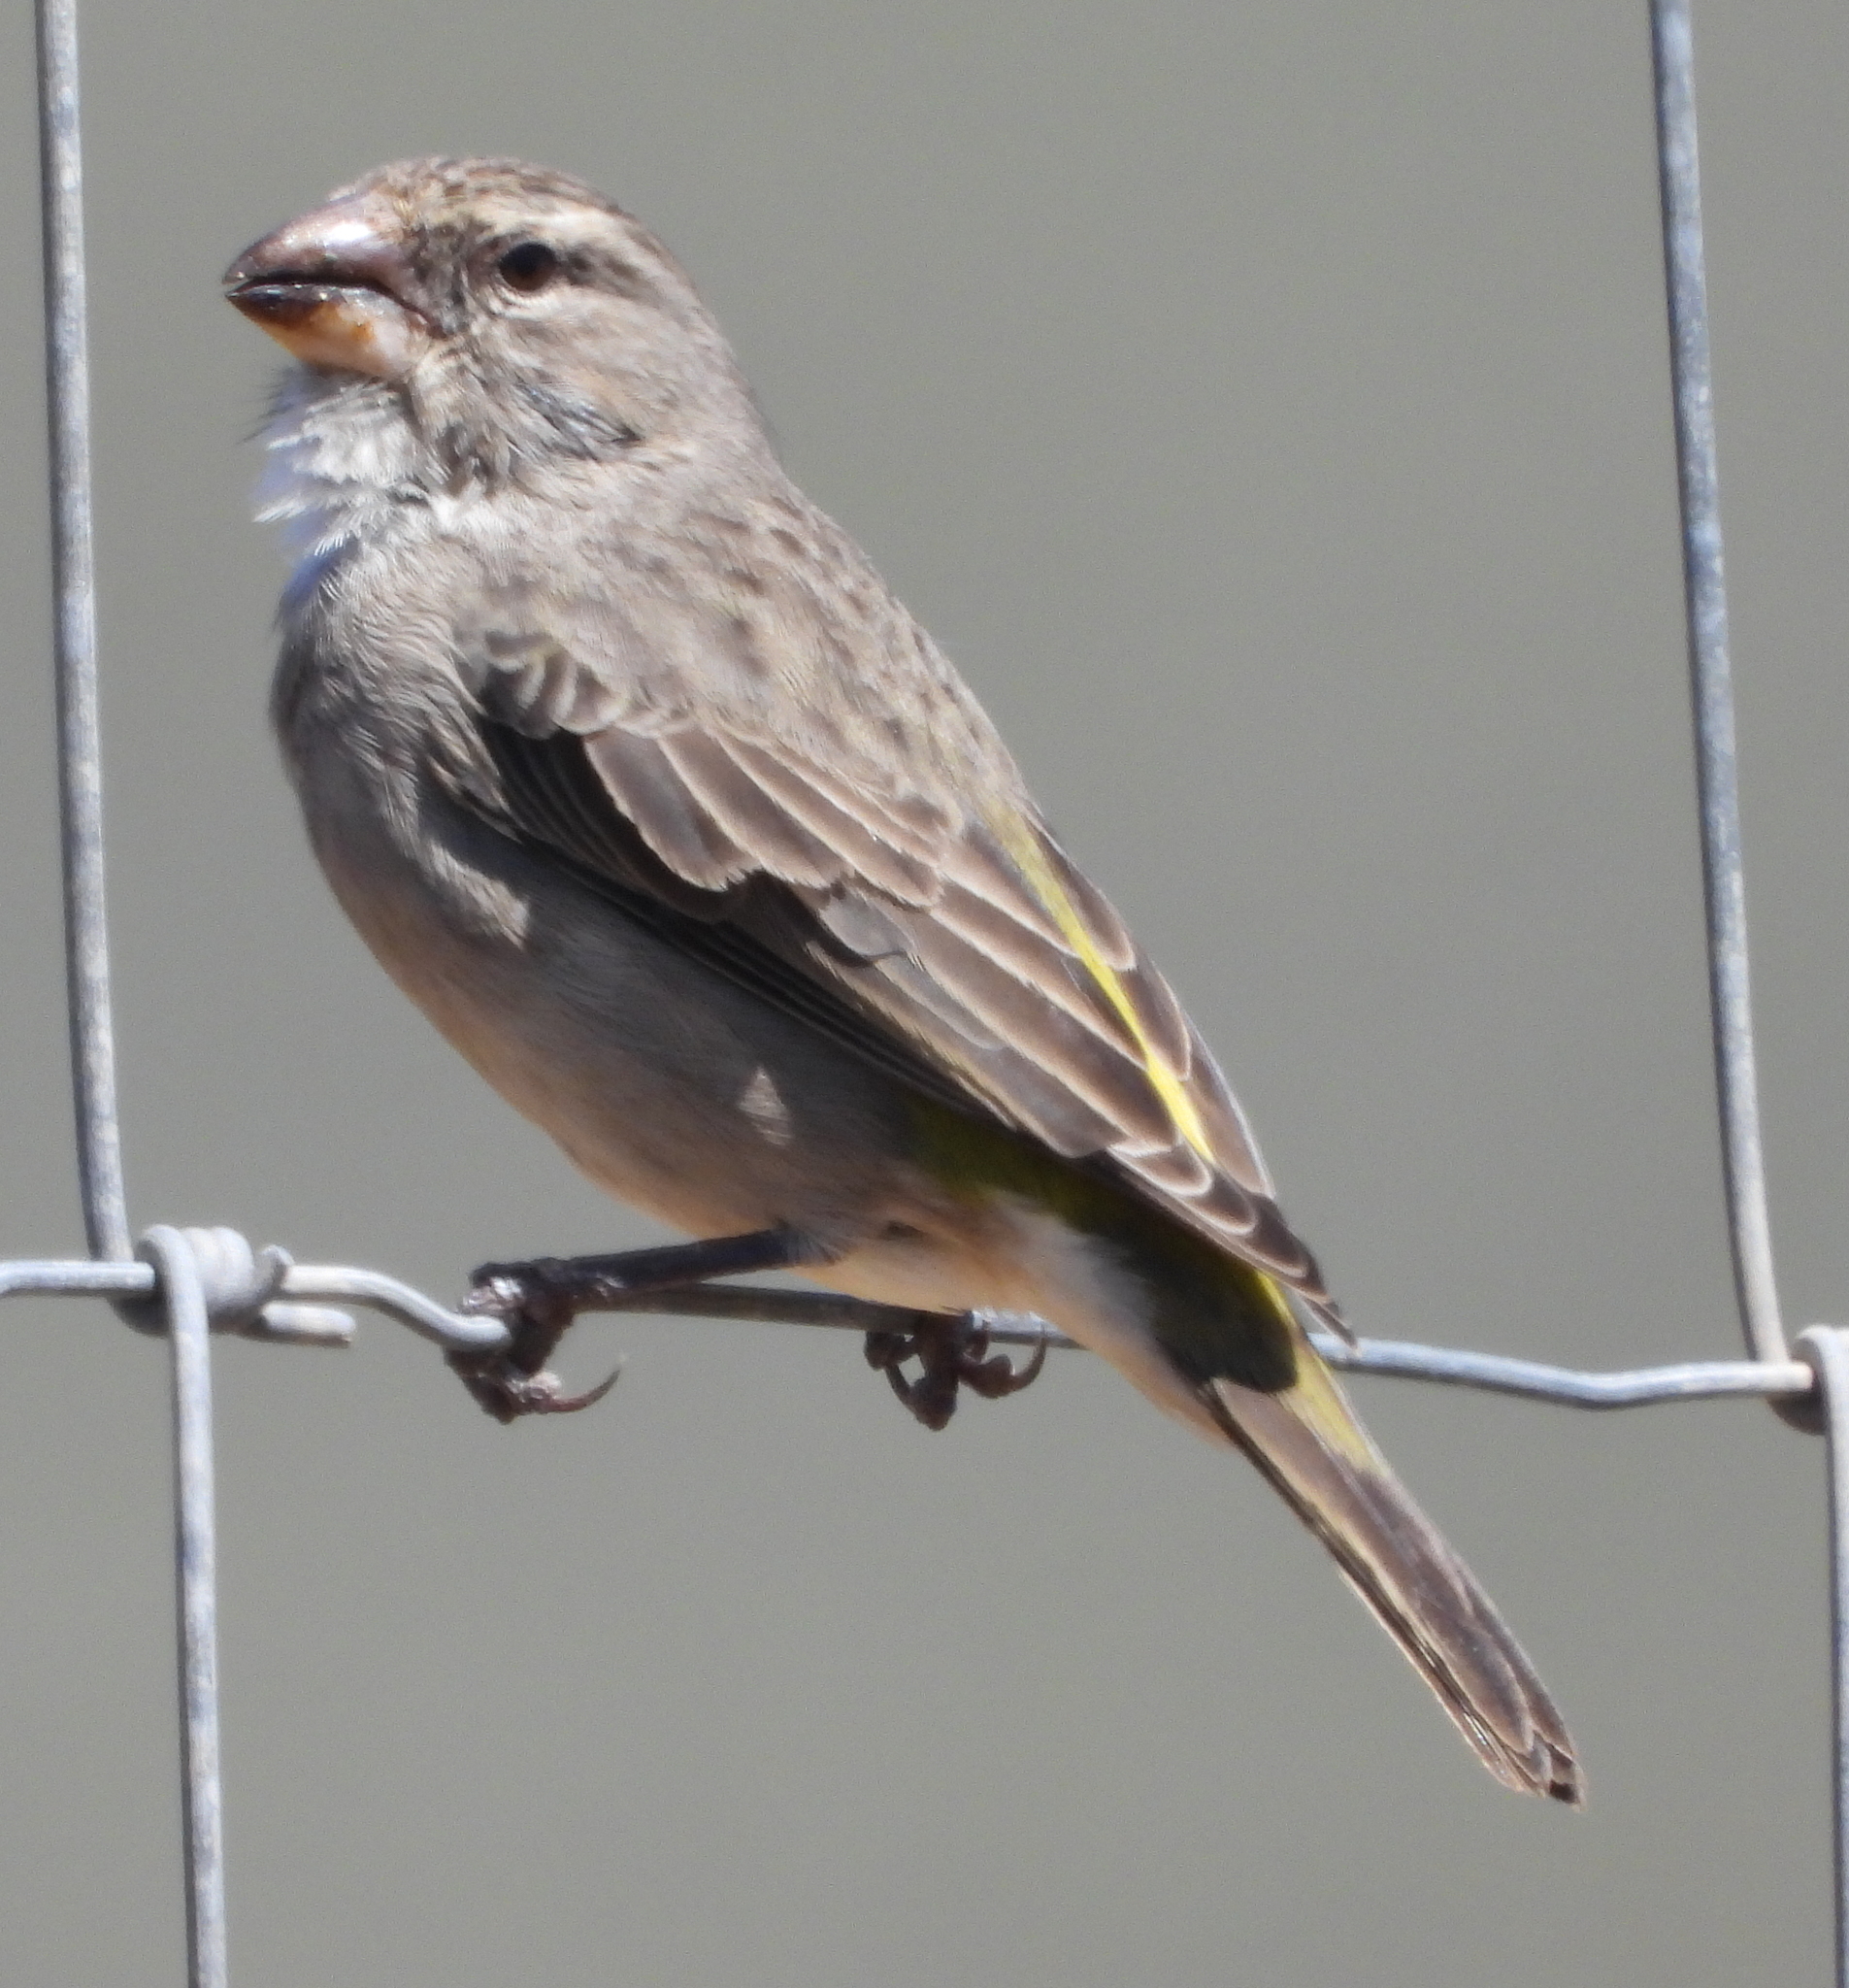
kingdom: Animalia
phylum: Chordata
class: Aves
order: Passeriformes
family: Fringillidae
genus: Crithagra
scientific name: Crithagra albogularis
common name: White-throated canary
